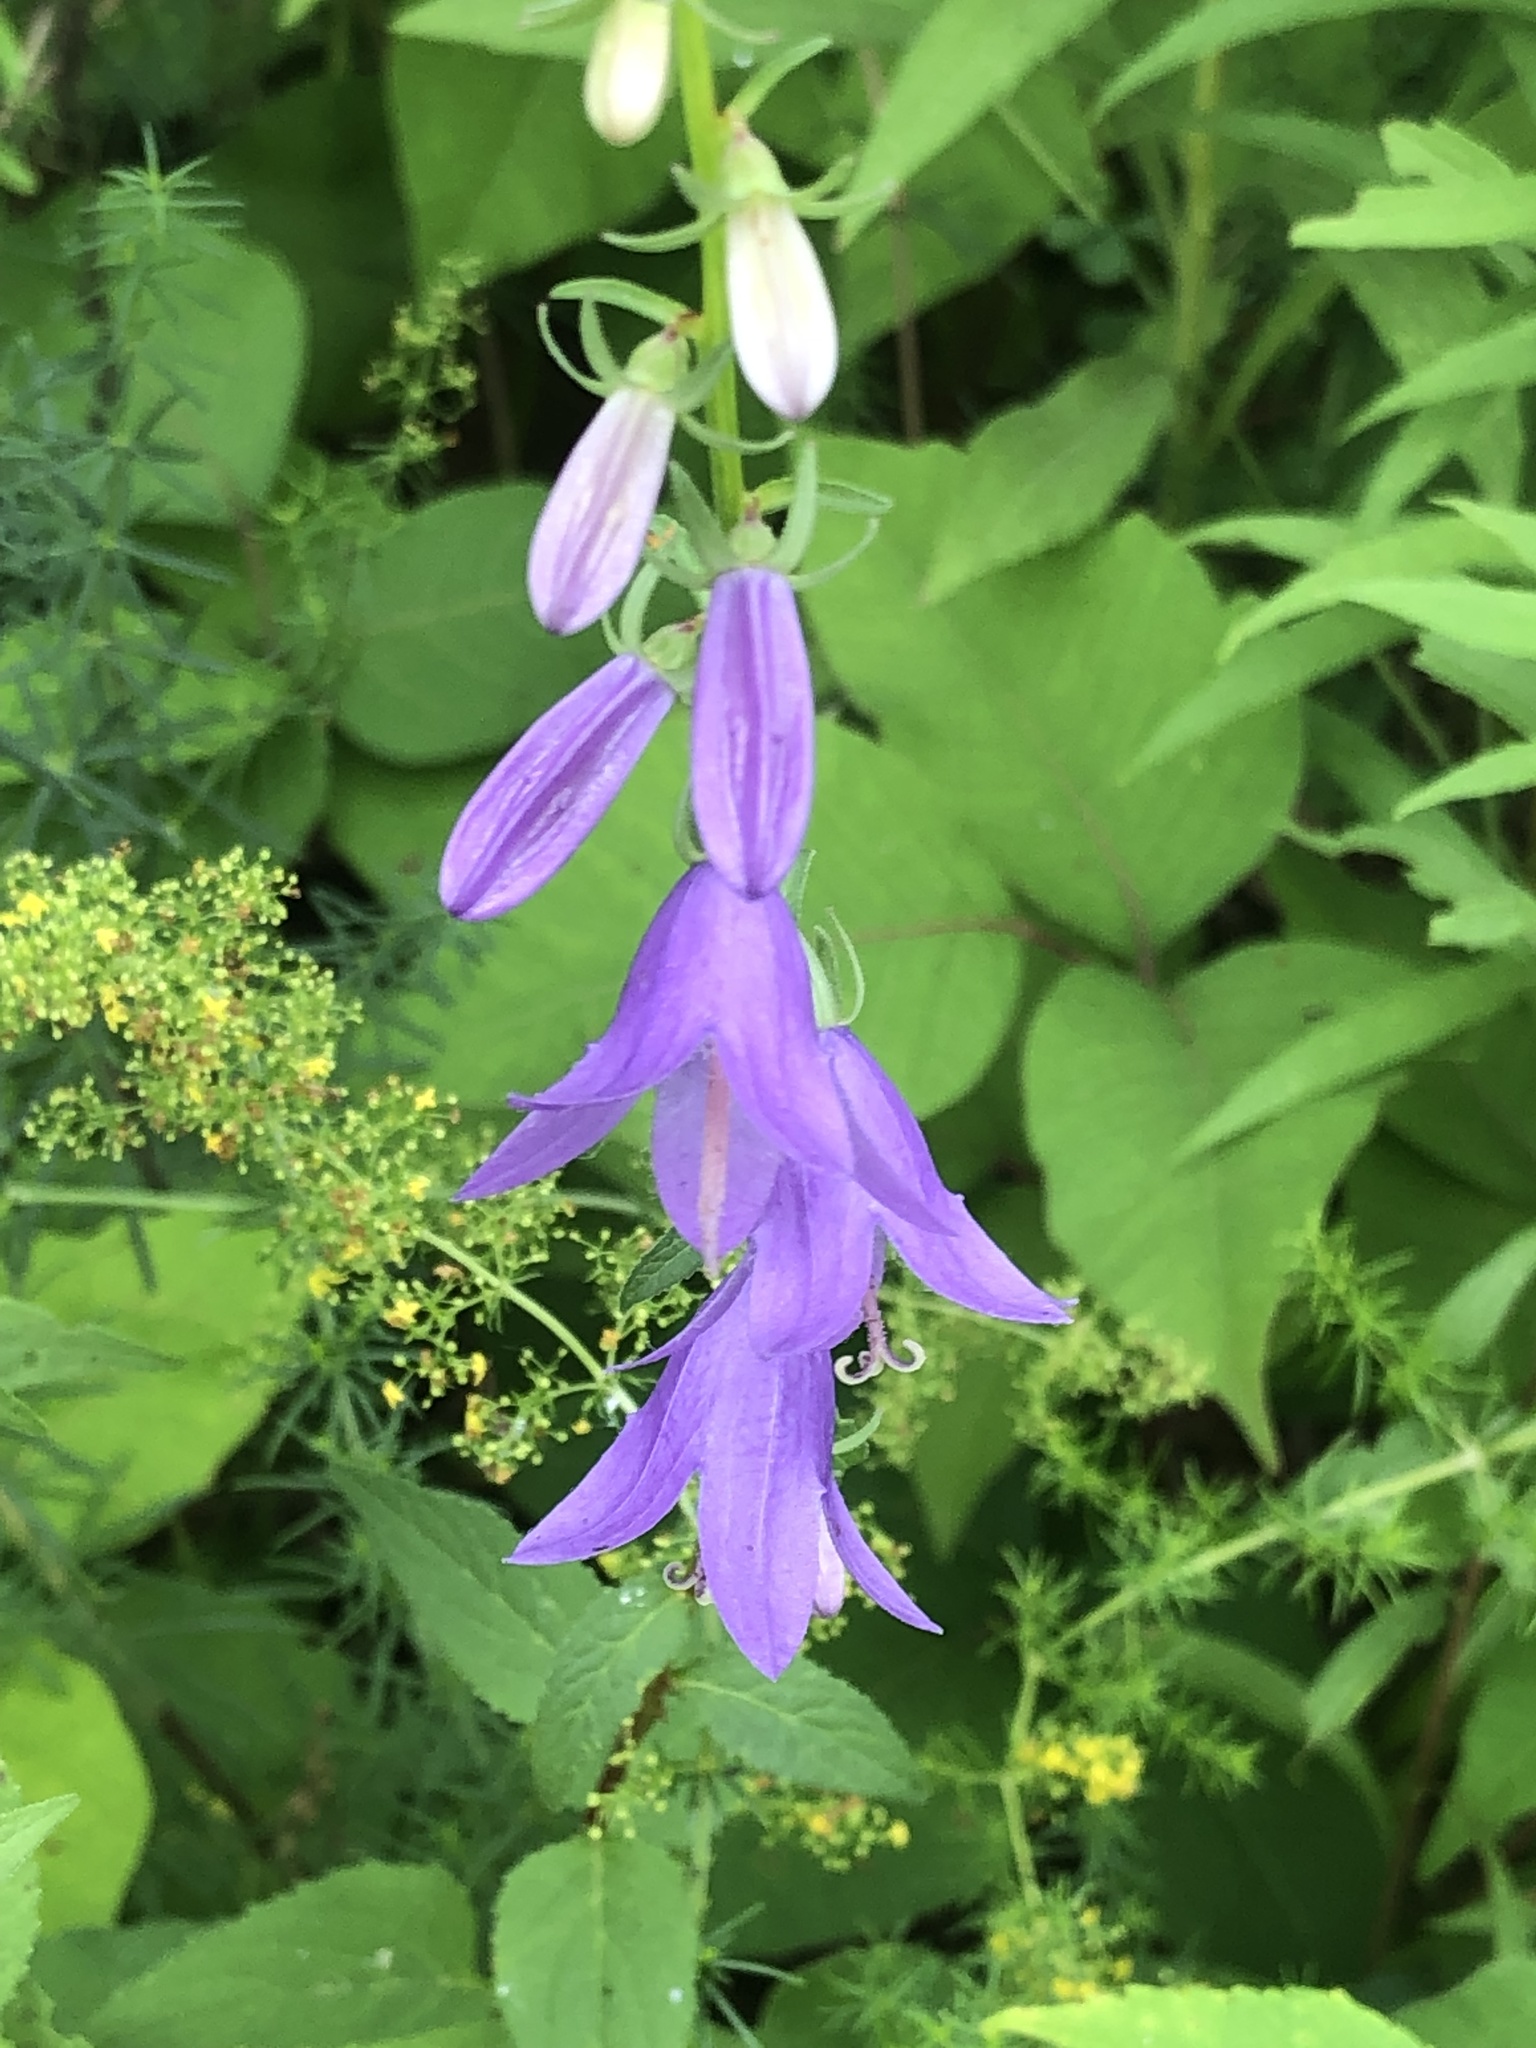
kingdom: Plantae
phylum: Tracheophyta
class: Magnoliopsida
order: Asterales
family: Campanulaceae
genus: Campanula
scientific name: Campanula rapunculoides
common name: Creeping bellflower
